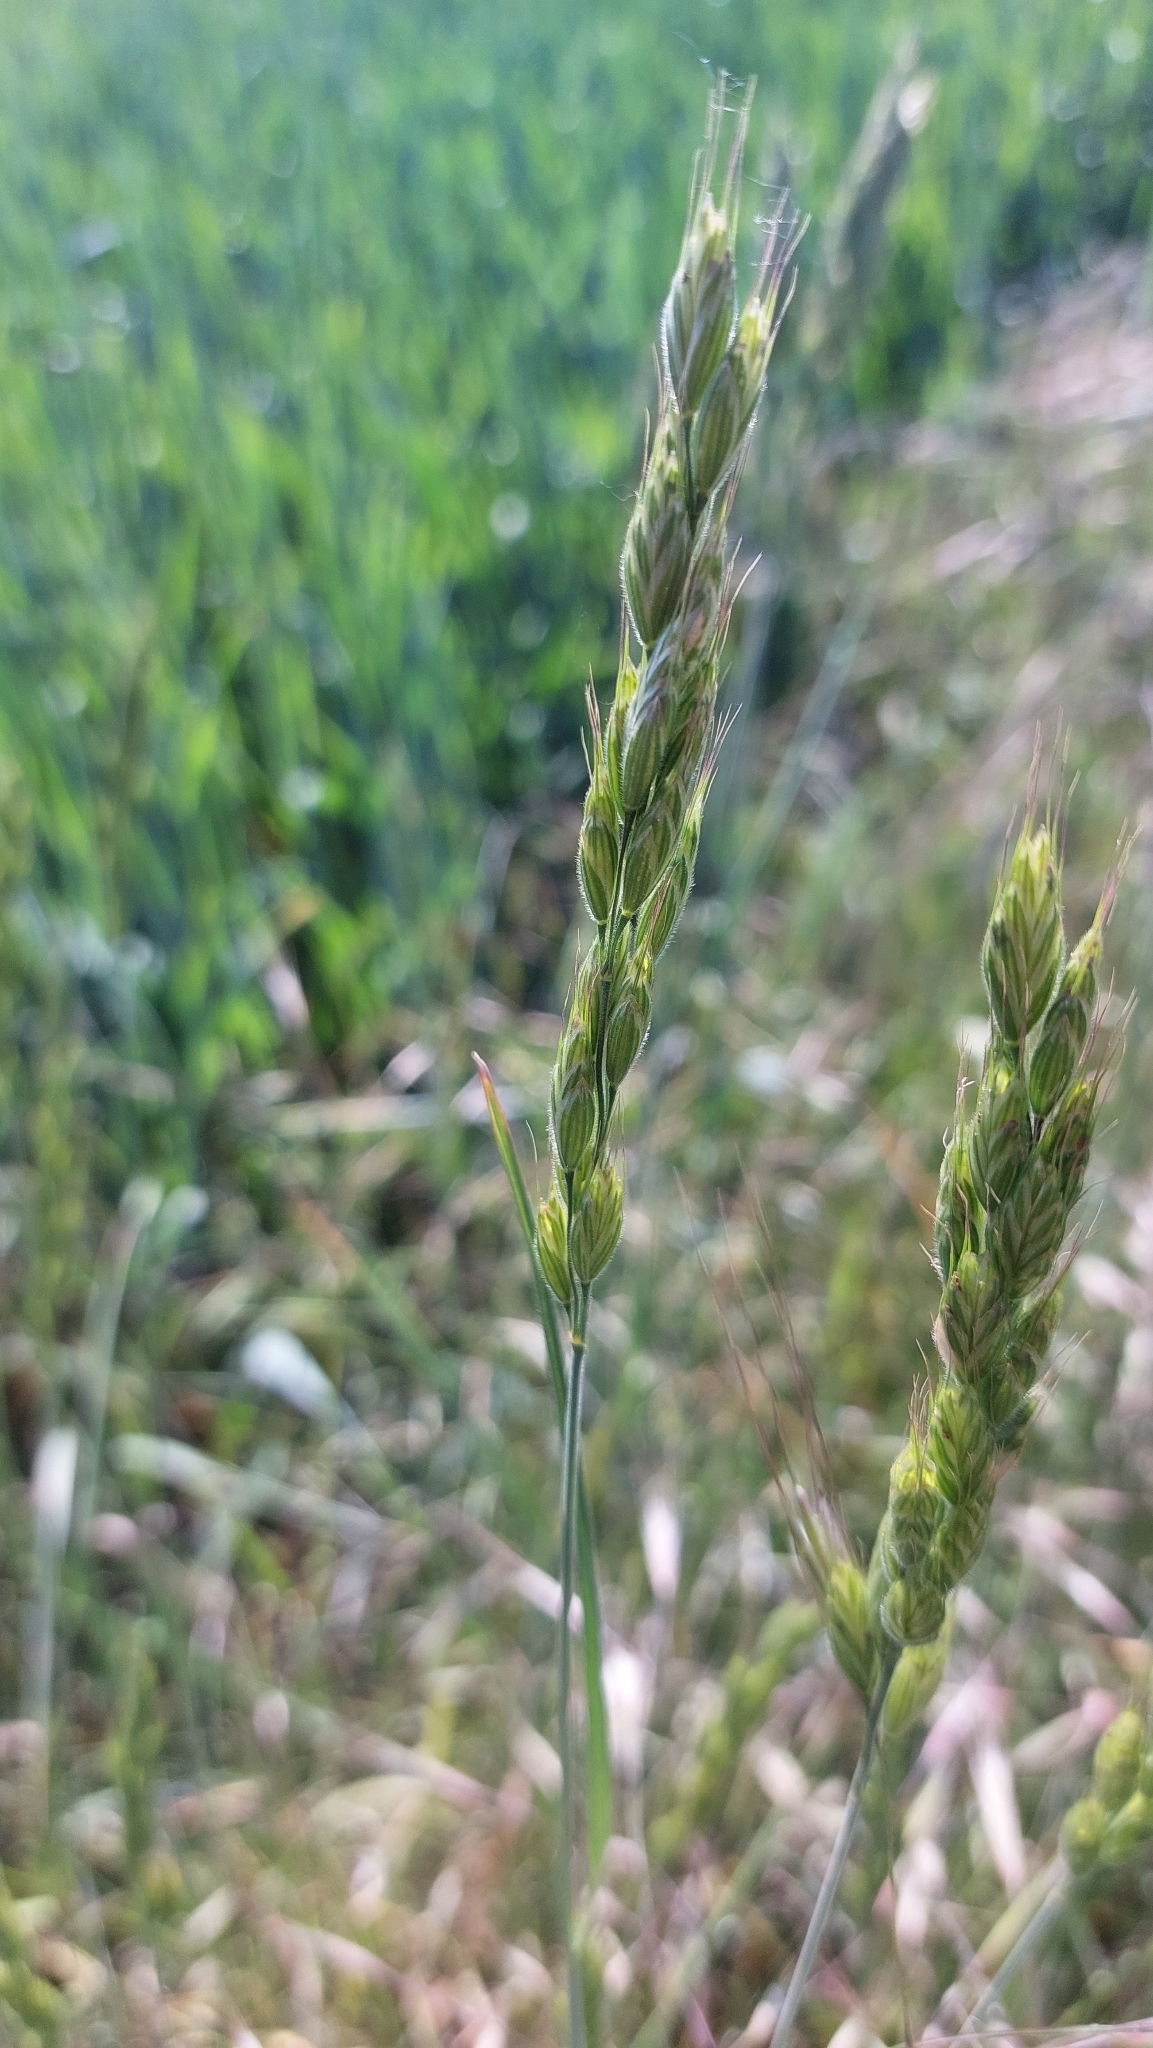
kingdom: Plantae
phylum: Tracheophyta
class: Liliopsida
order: Poales
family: Poaceae
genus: Bromus
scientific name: Bromus hordeaceus
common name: Soft brome
